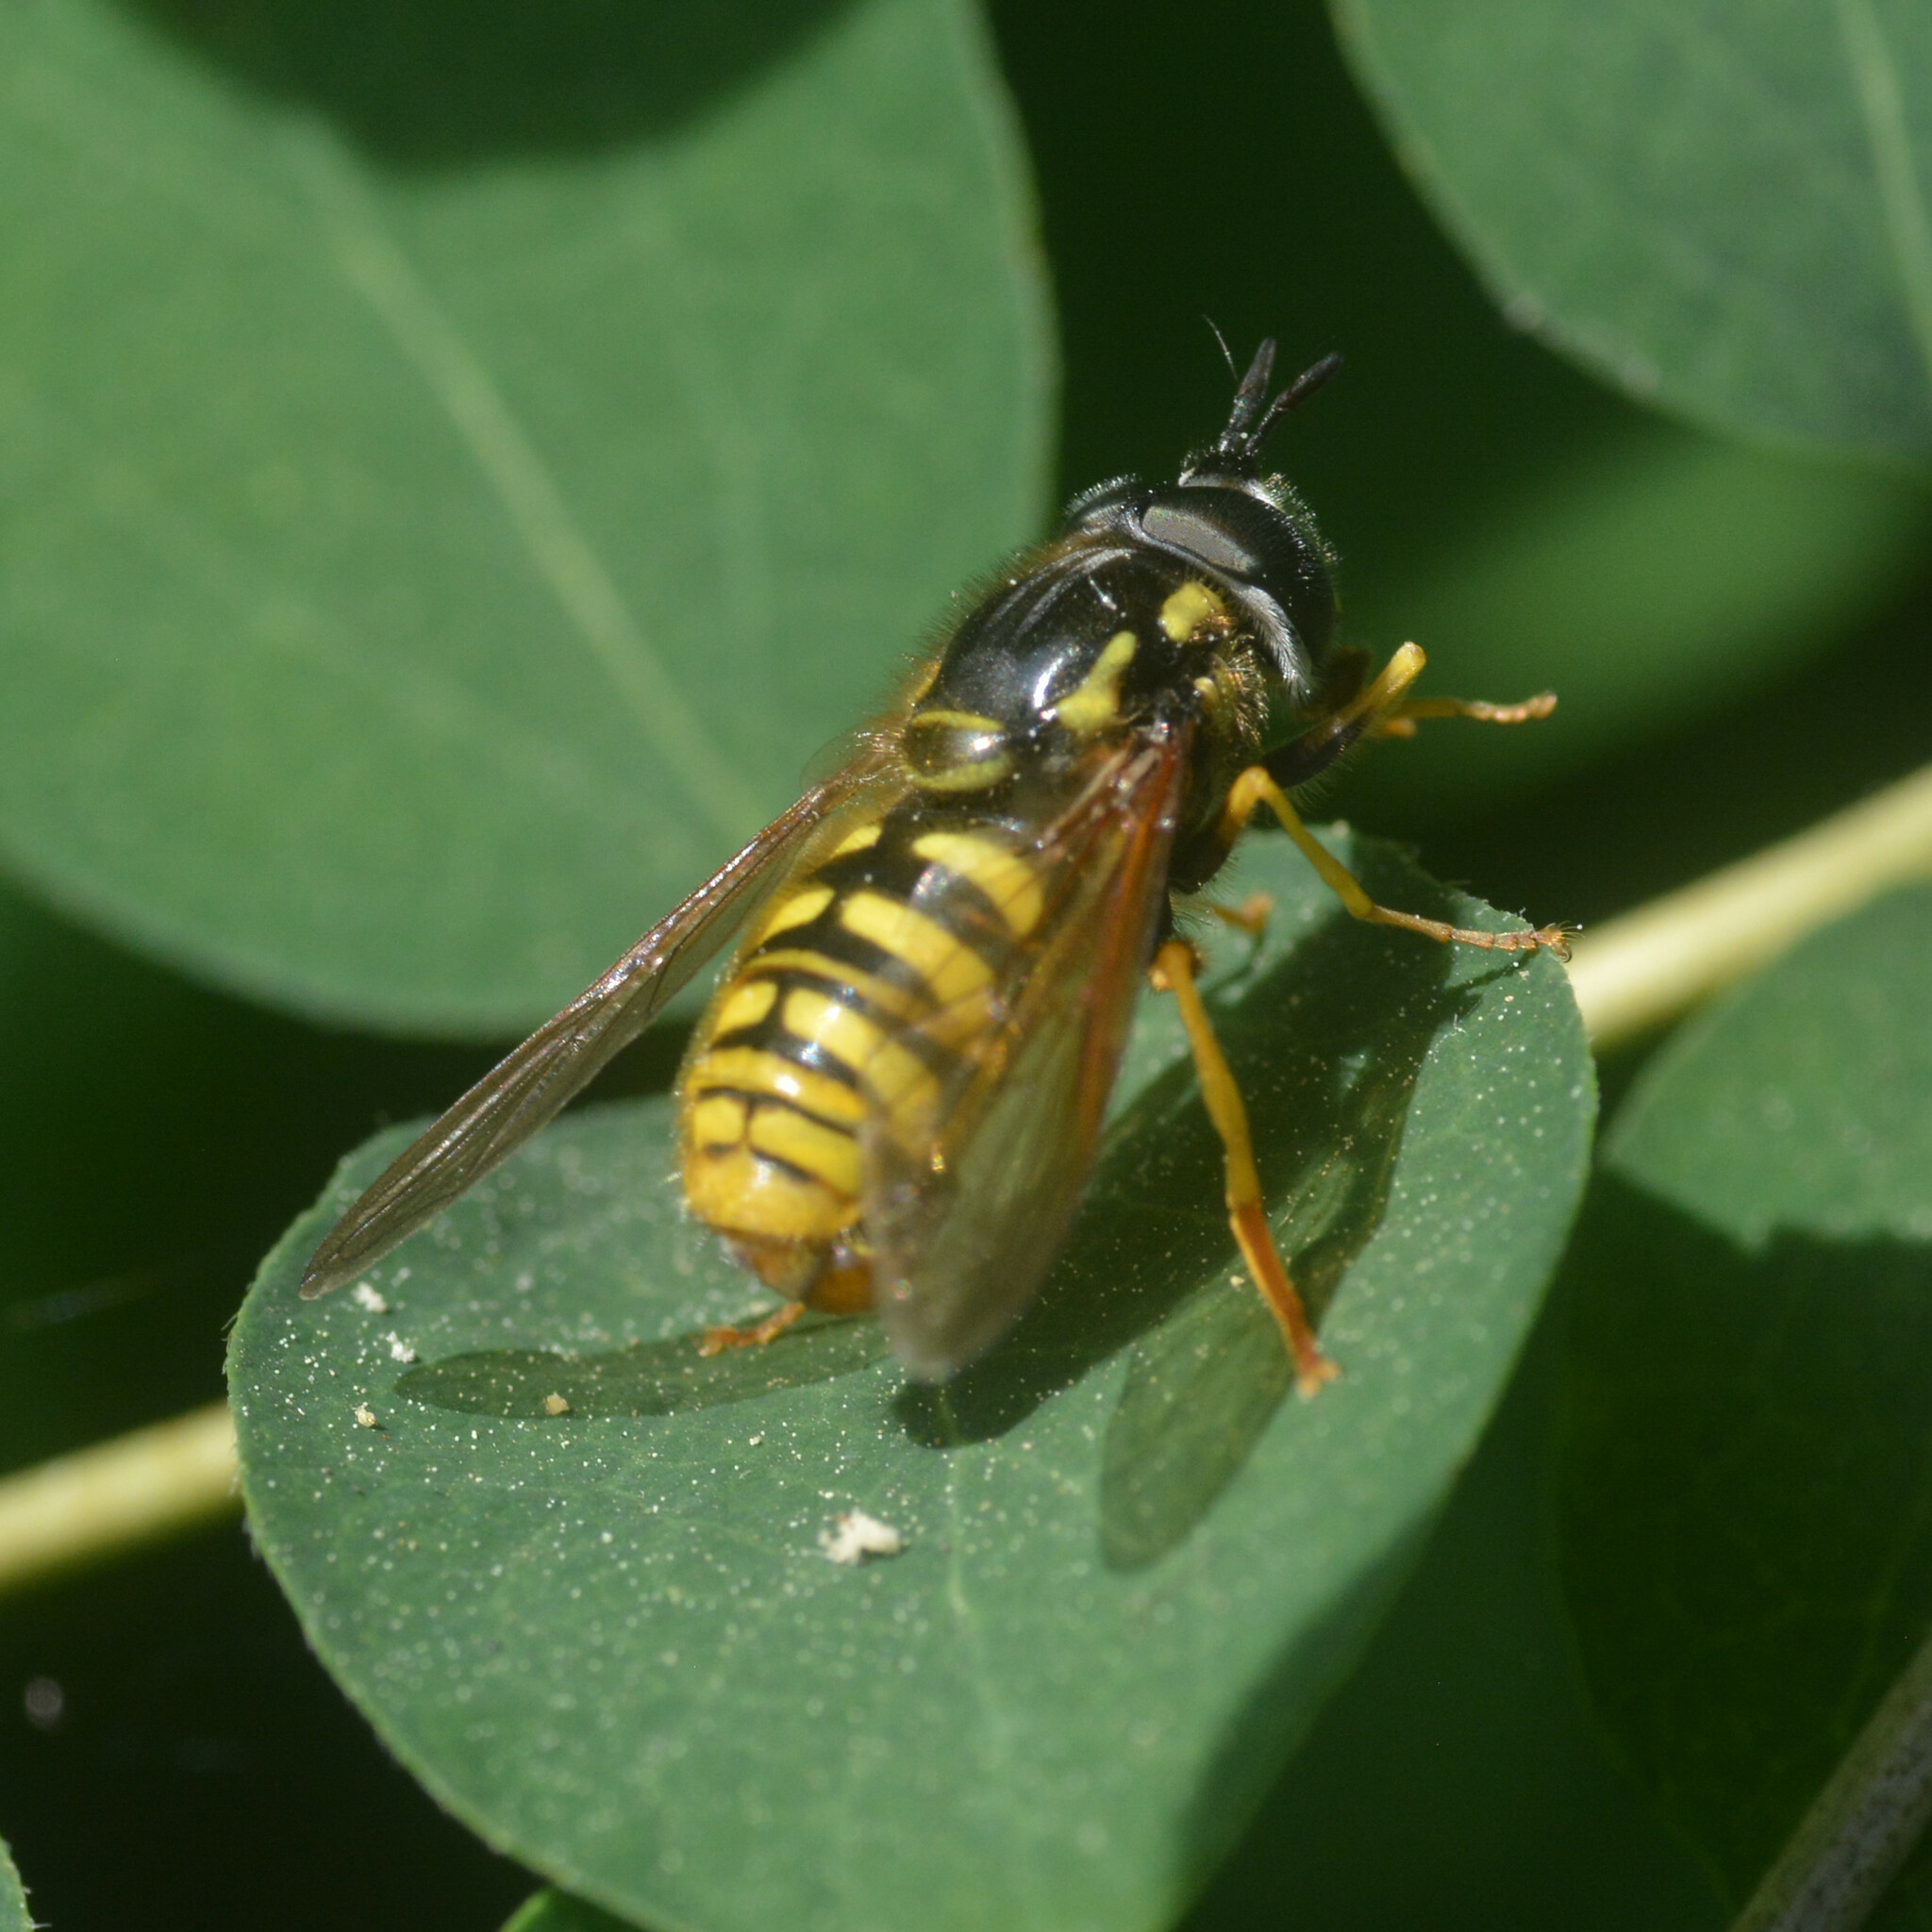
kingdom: Animalia
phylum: Arthropoda
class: Insecta
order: Diptera
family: Syrphidae
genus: Chrysotoxum
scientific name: Chrysotoxum cautum
